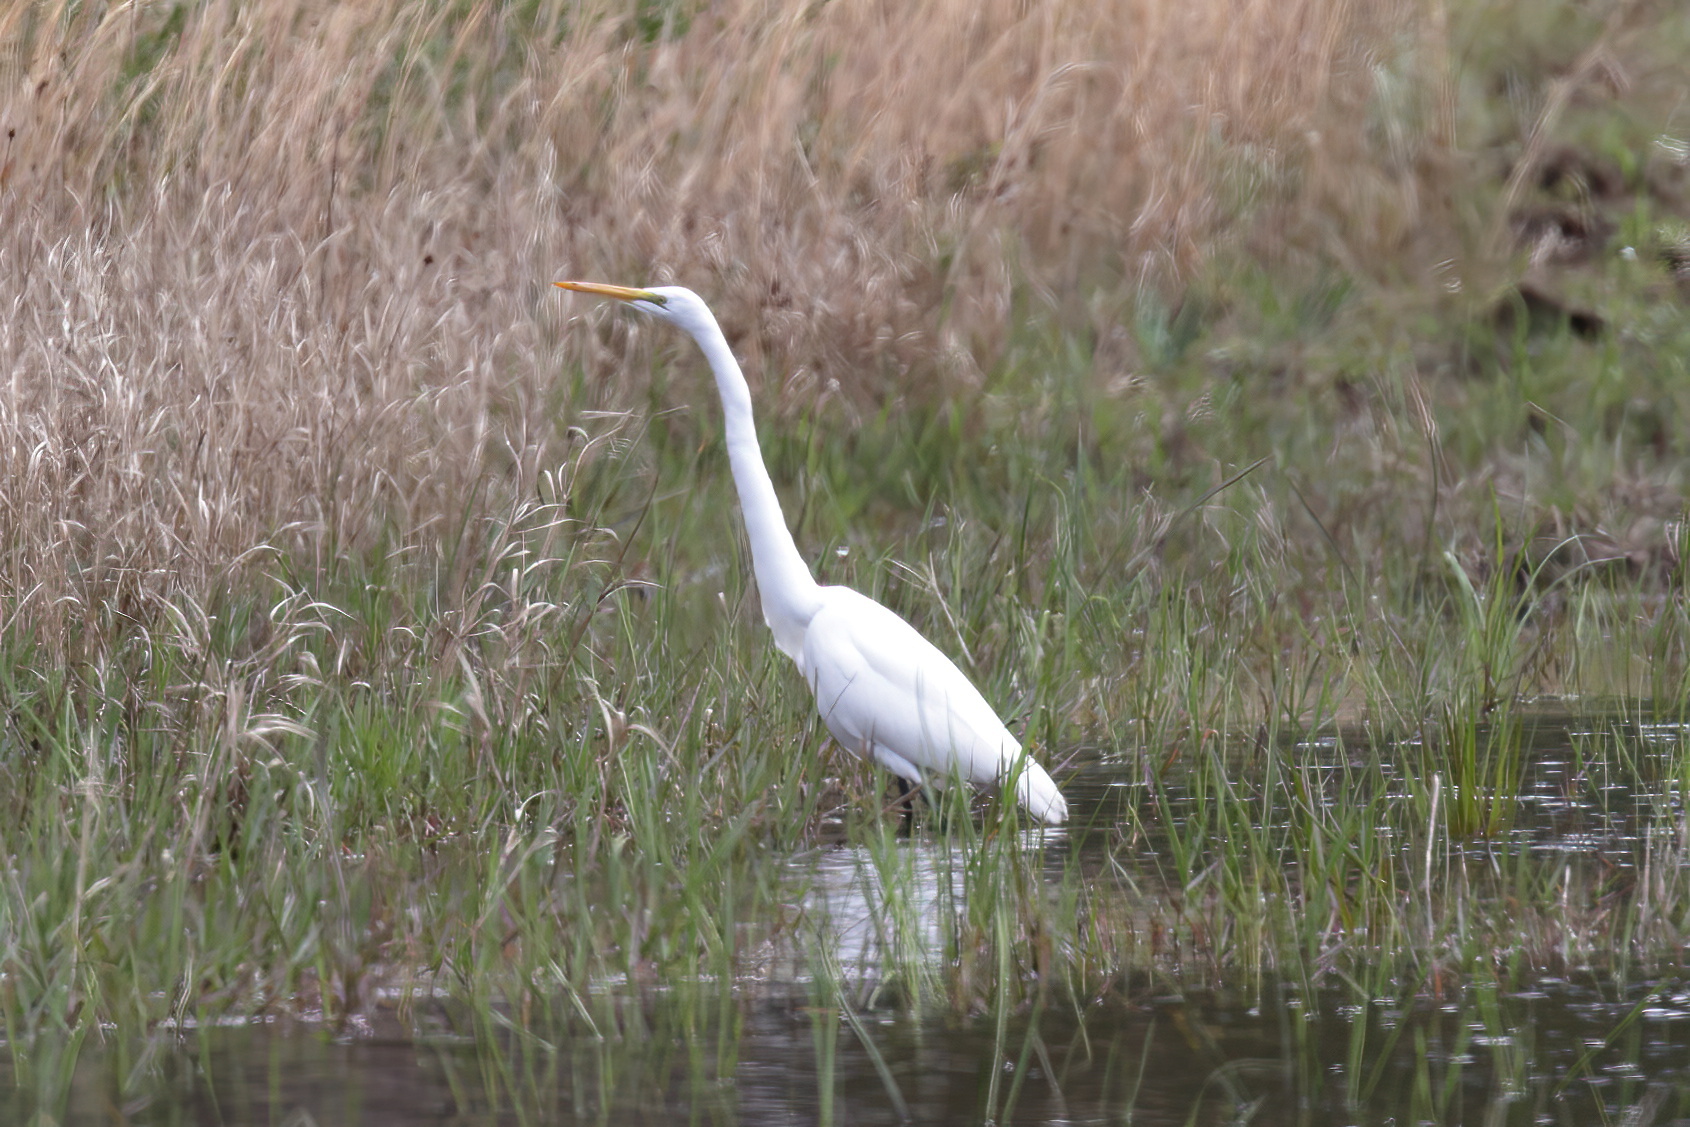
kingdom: Animalia
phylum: Chordata
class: Aves
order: Pelecaniformes
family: Ardeidae
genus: Ardea
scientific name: Ardea alba
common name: Great egret
